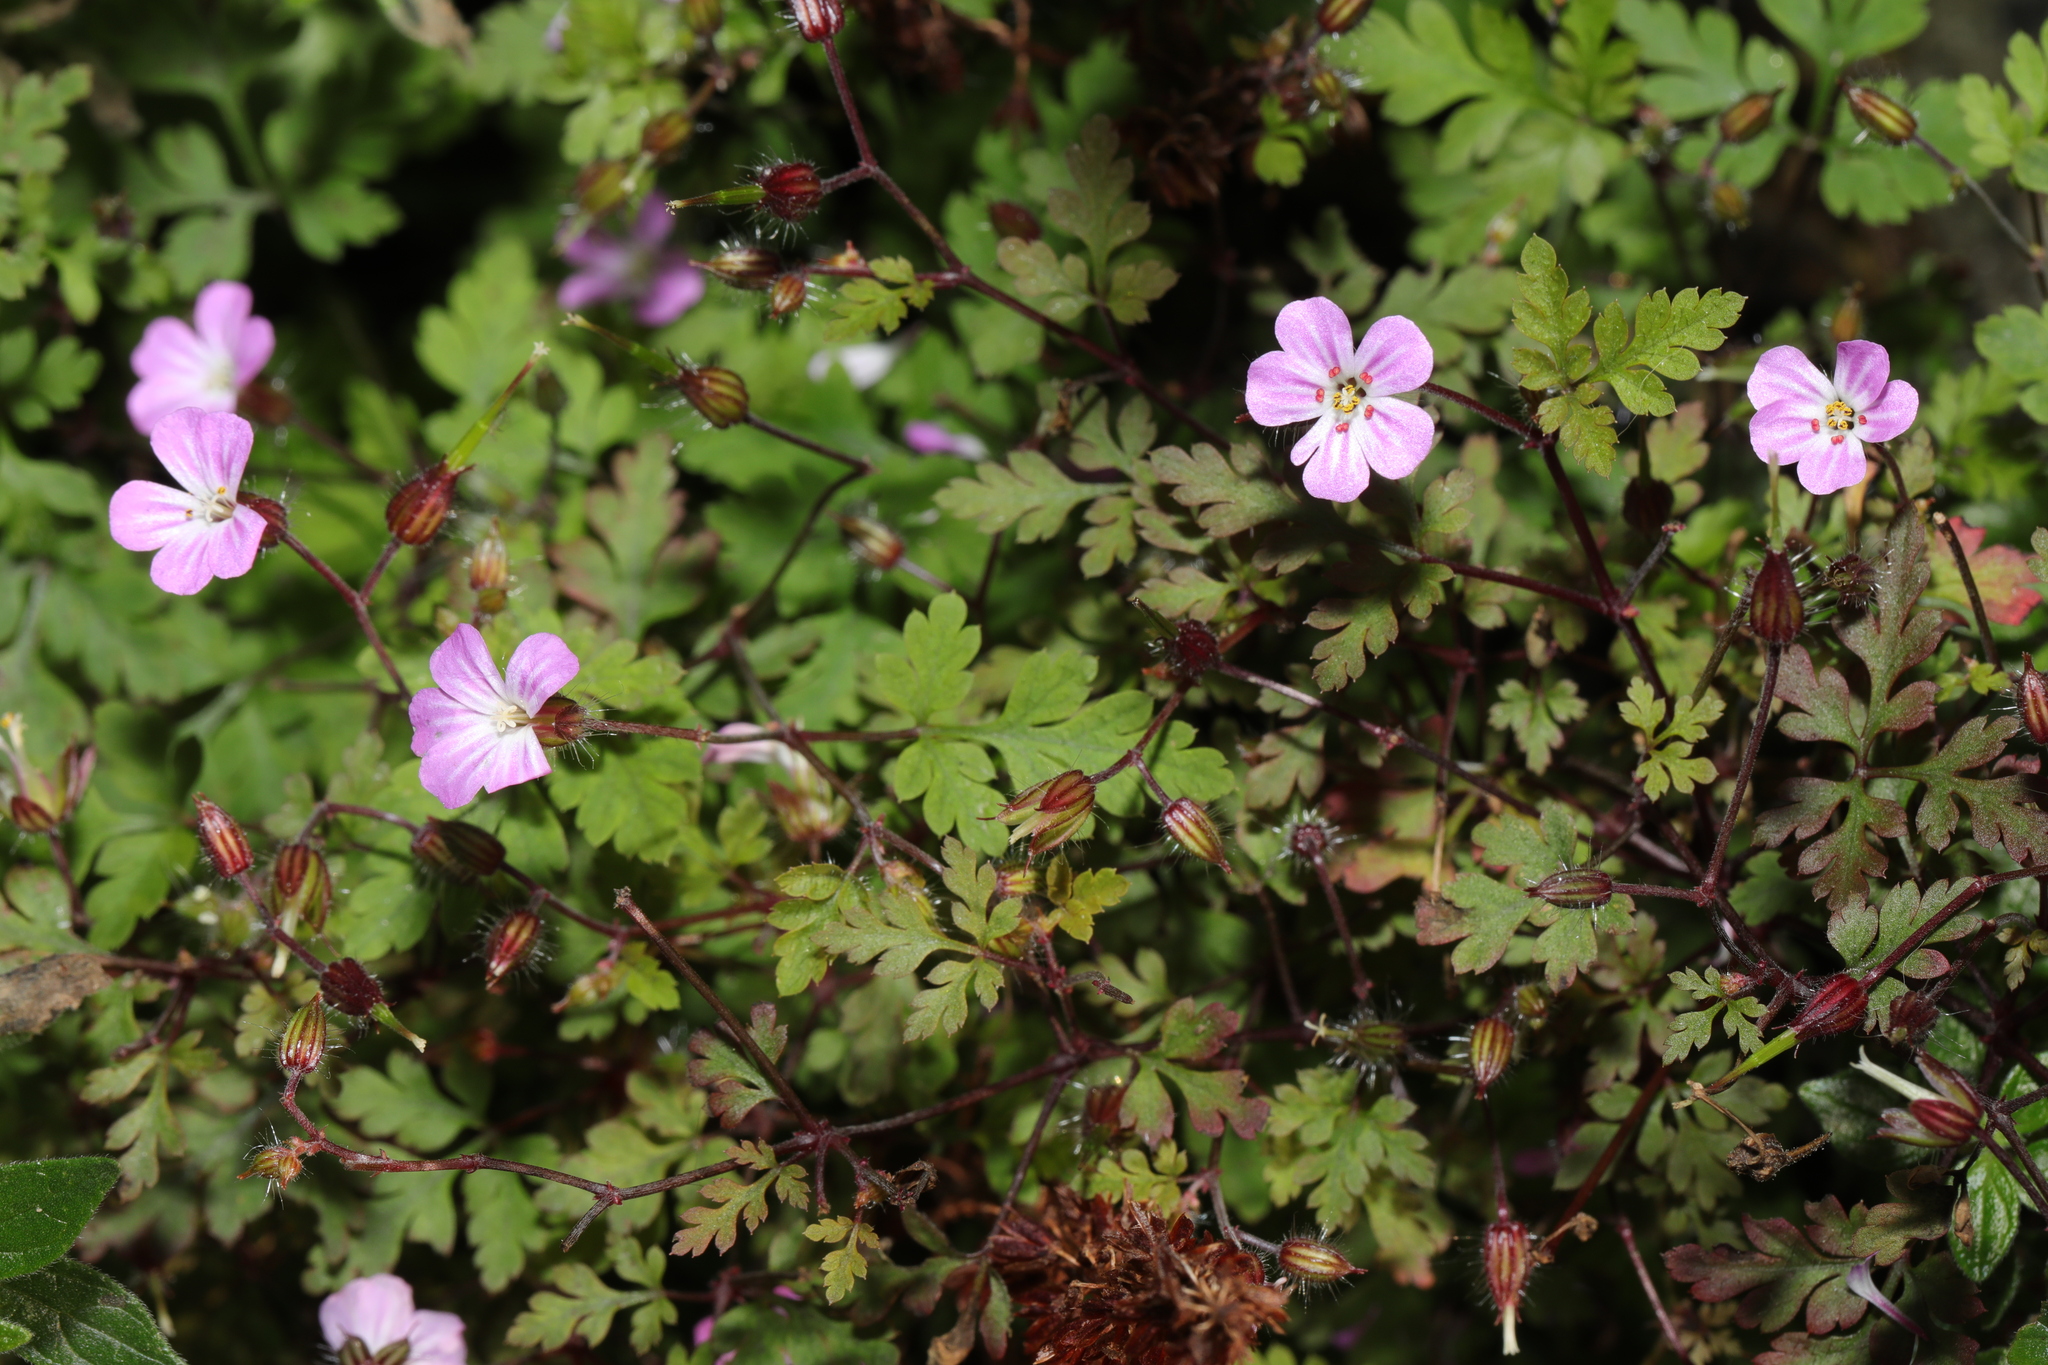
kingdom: Plantae
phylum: Tracheophyta
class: Magnoliopsida
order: Geraniales
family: Geraniaceae
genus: Geranium
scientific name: Geranium robertianum
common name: Herb-robert
